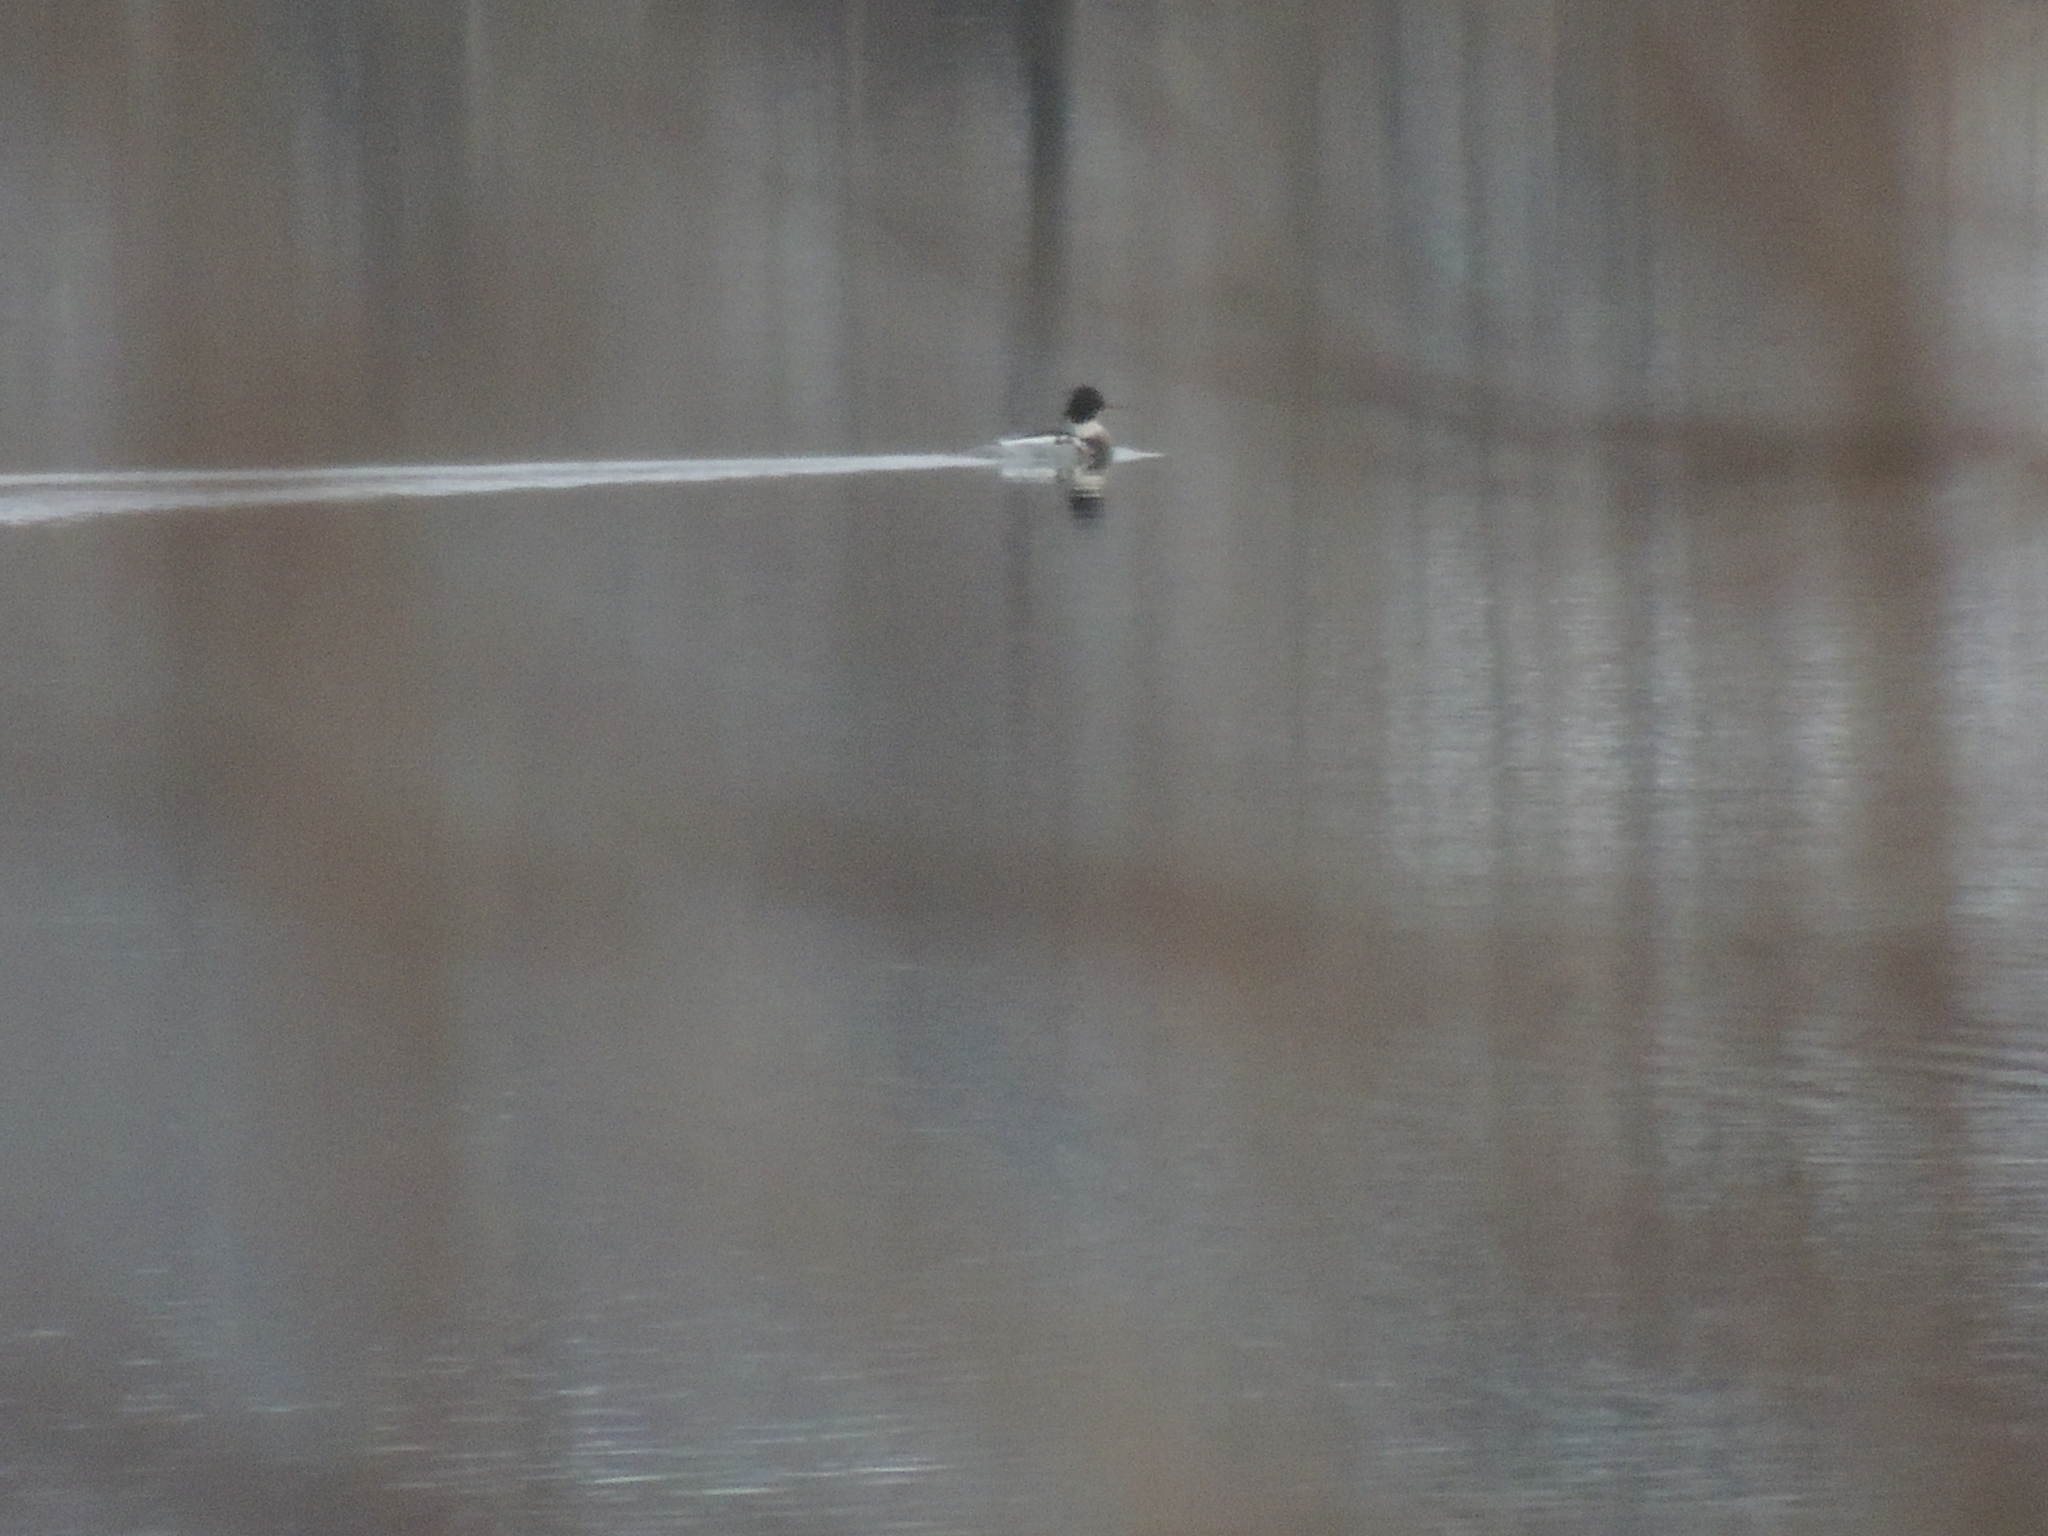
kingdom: Animalia
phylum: Chordata
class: Aves
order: Anseriformes
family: Anatidae
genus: Mergus
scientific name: Mergus serrator
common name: Red-breasted merganser
